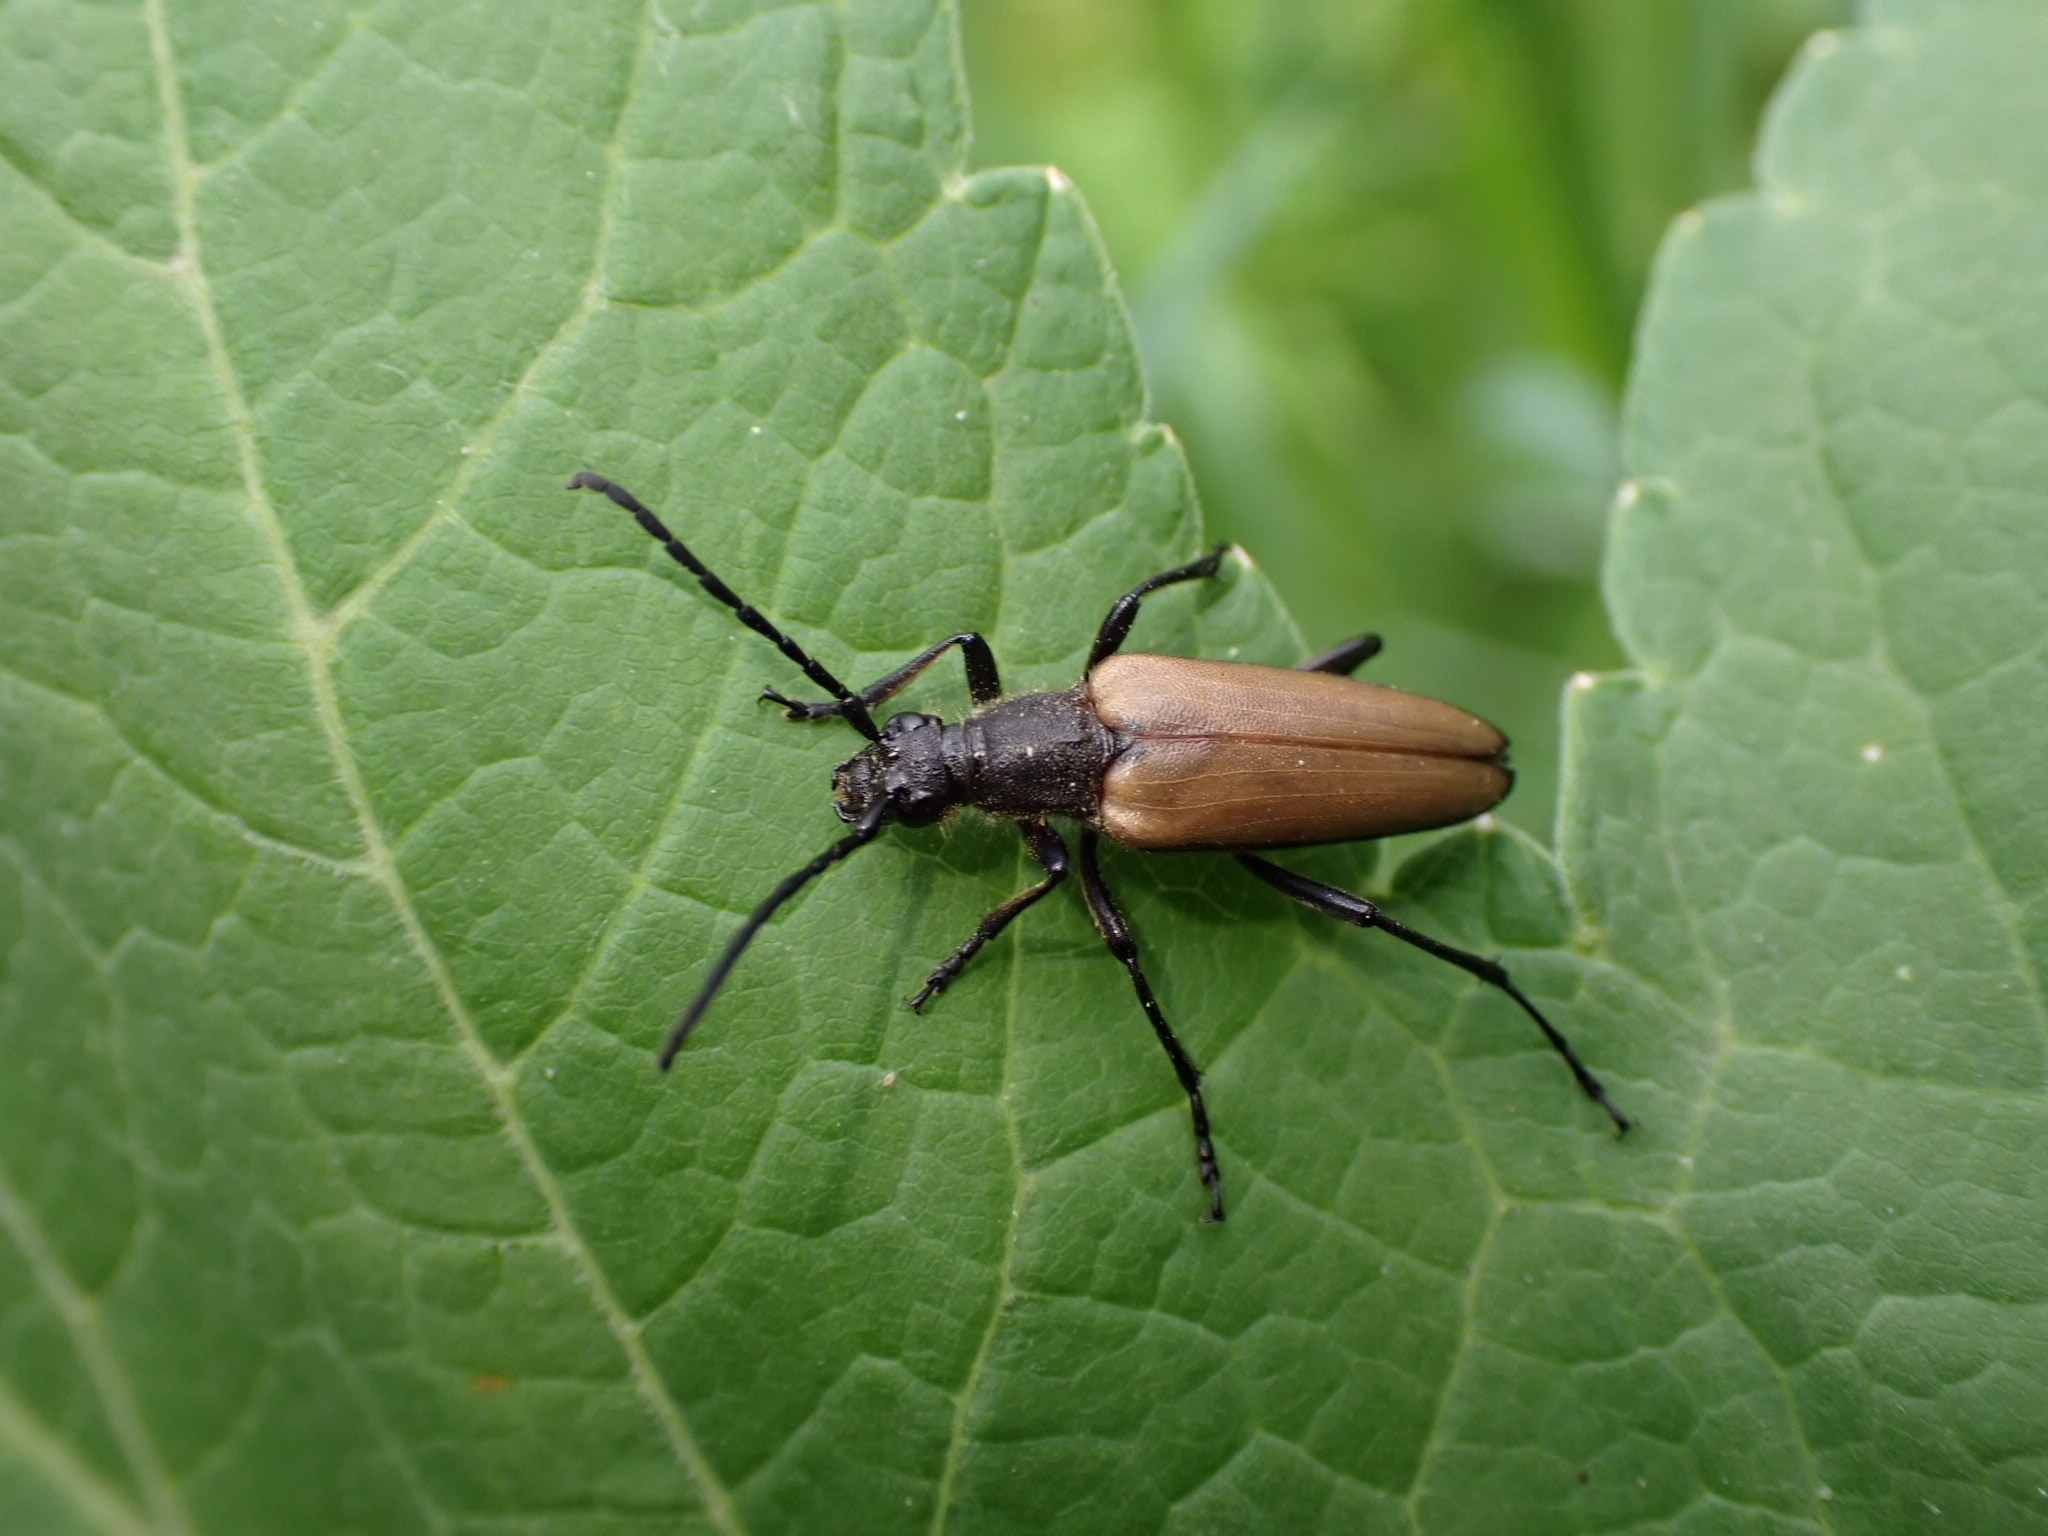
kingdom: Animalia
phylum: Arthropoda
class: Insecta
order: Coleoptera
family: Cerambycidae
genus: Lepturalia
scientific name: Lepturalia nigripes
